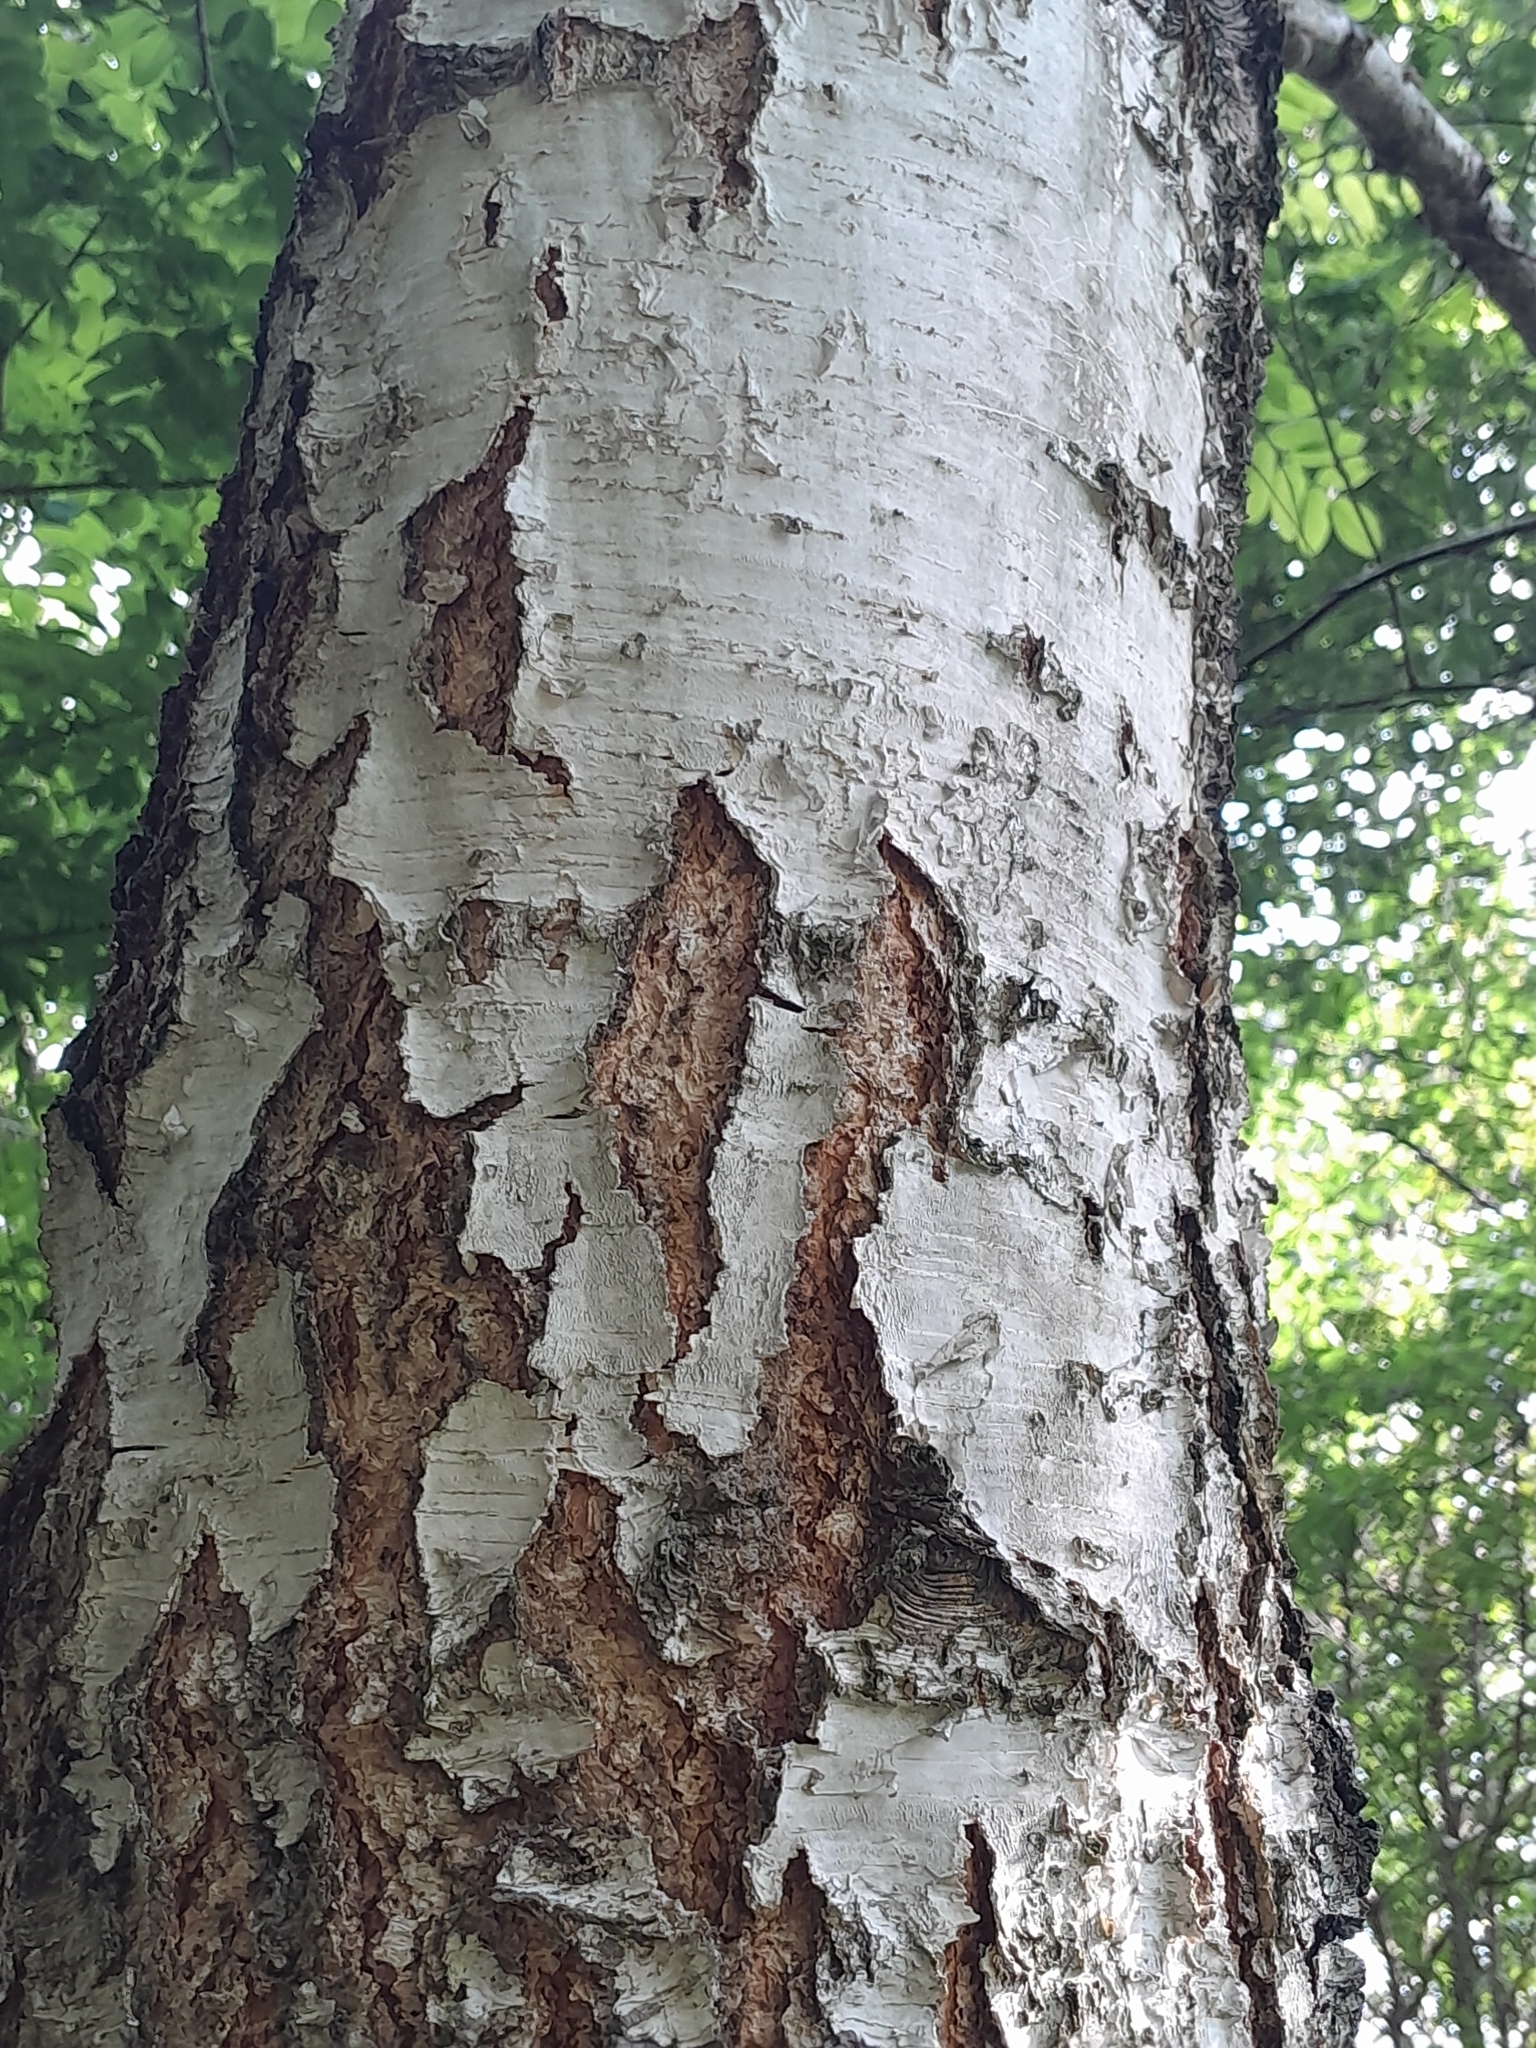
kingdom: Plantae
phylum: Tracheophyta
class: Magnoliopsida
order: Fagales
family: Betulaceae
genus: Betula
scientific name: Betula pendula
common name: Silver birch
